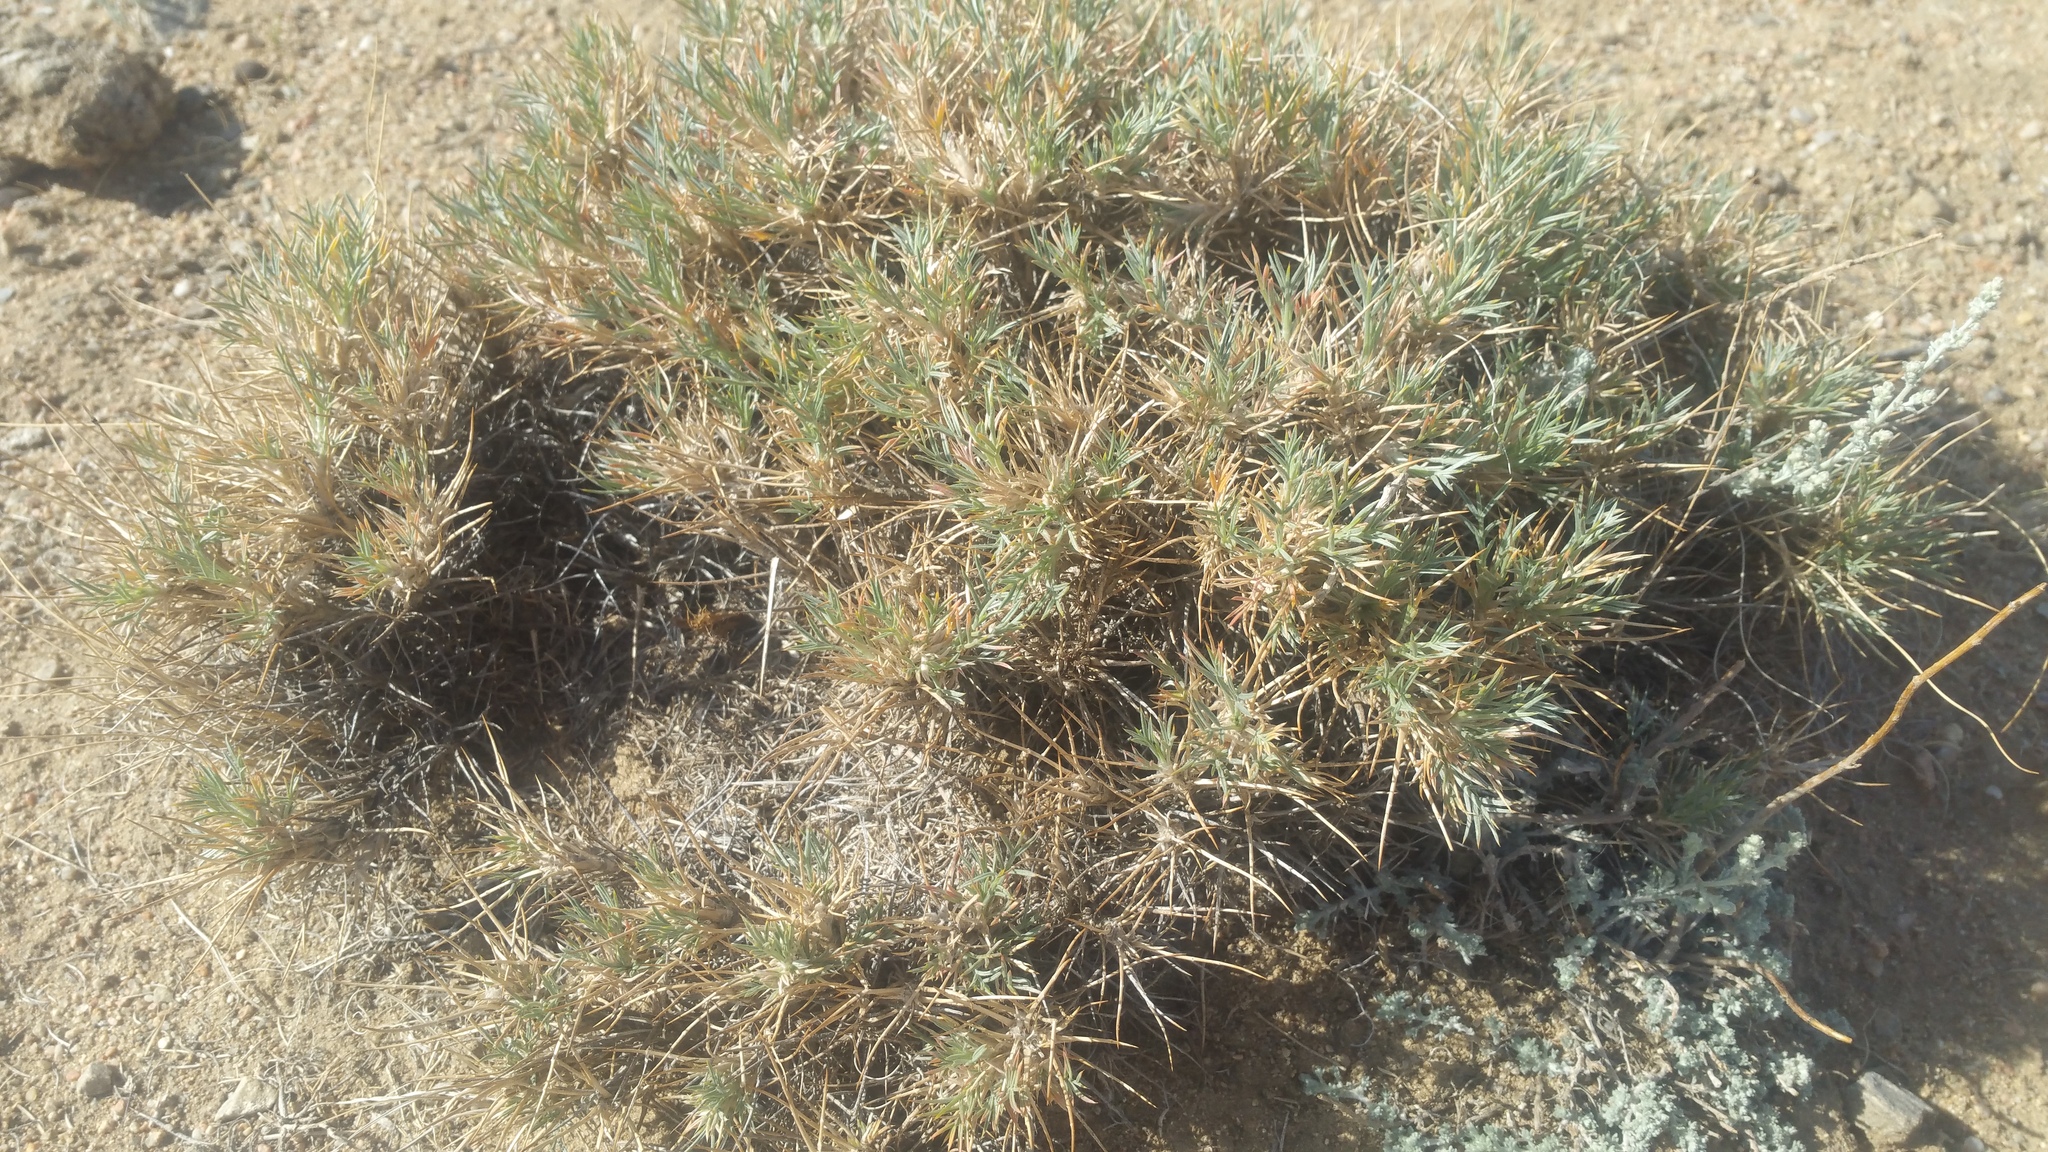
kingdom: Plantae
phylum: Tracheophyta
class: Magnoliopsida
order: Fabales
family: Fabaceae
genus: Oxytropis
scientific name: Oxytropis aciphylla
